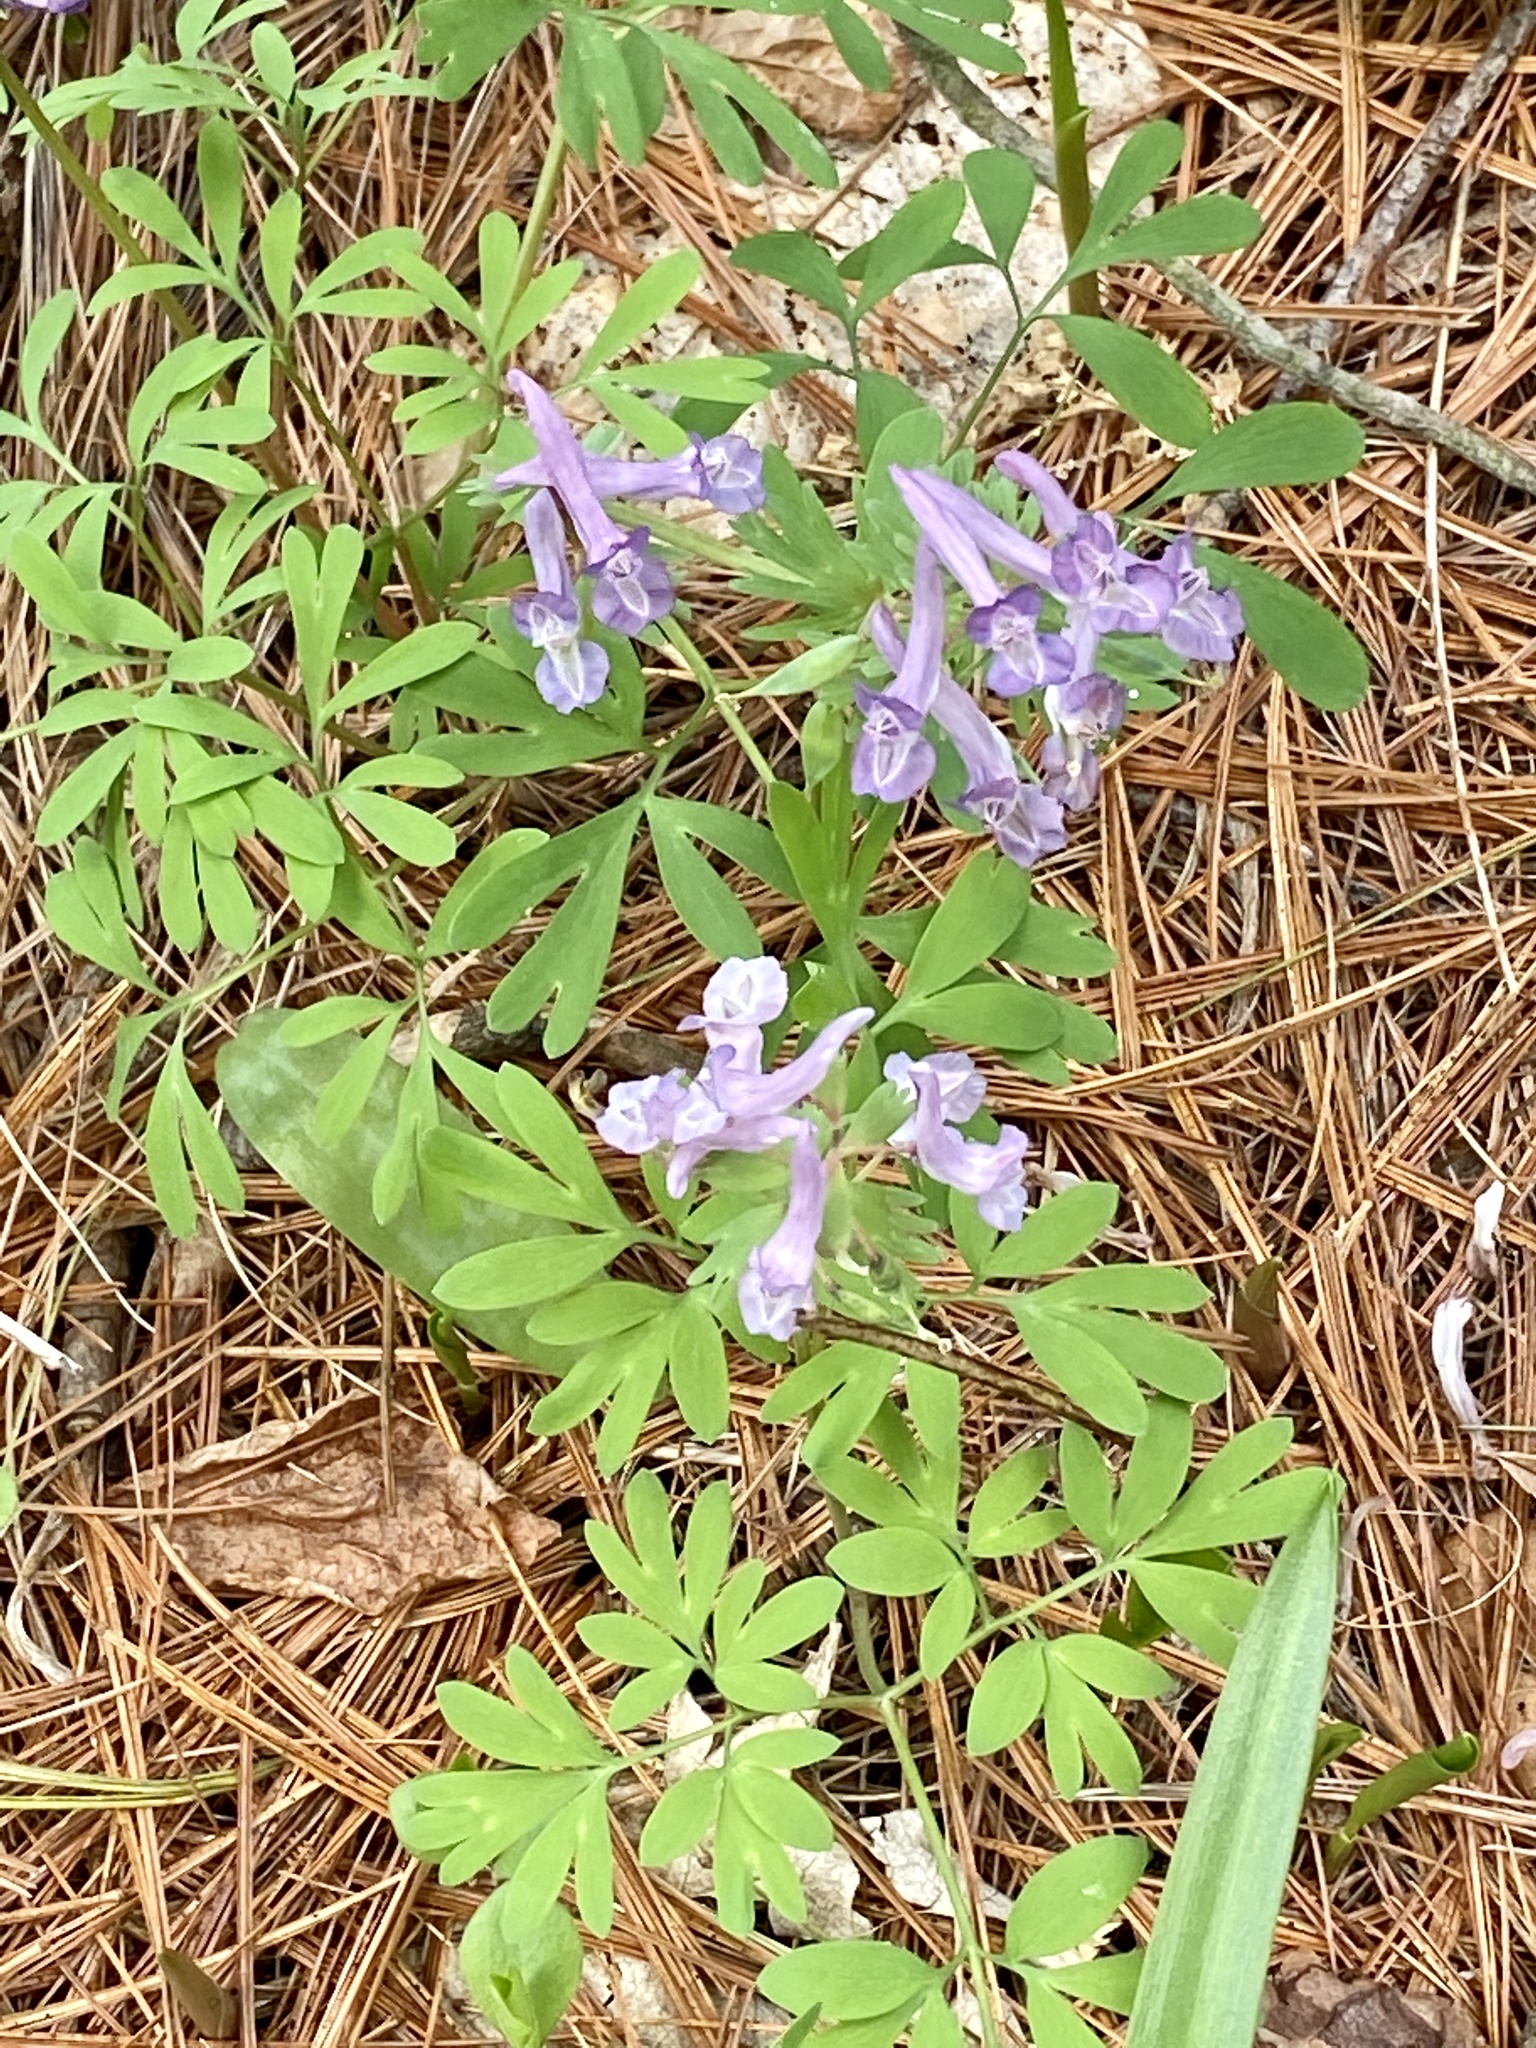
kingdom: Plantae
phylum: Tracheophyta
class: Magnoliopsida
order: Ranunculales
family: Papaveraceae
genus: Corydalis
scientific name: Corydalis solida
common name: Bird-in-a-bush
